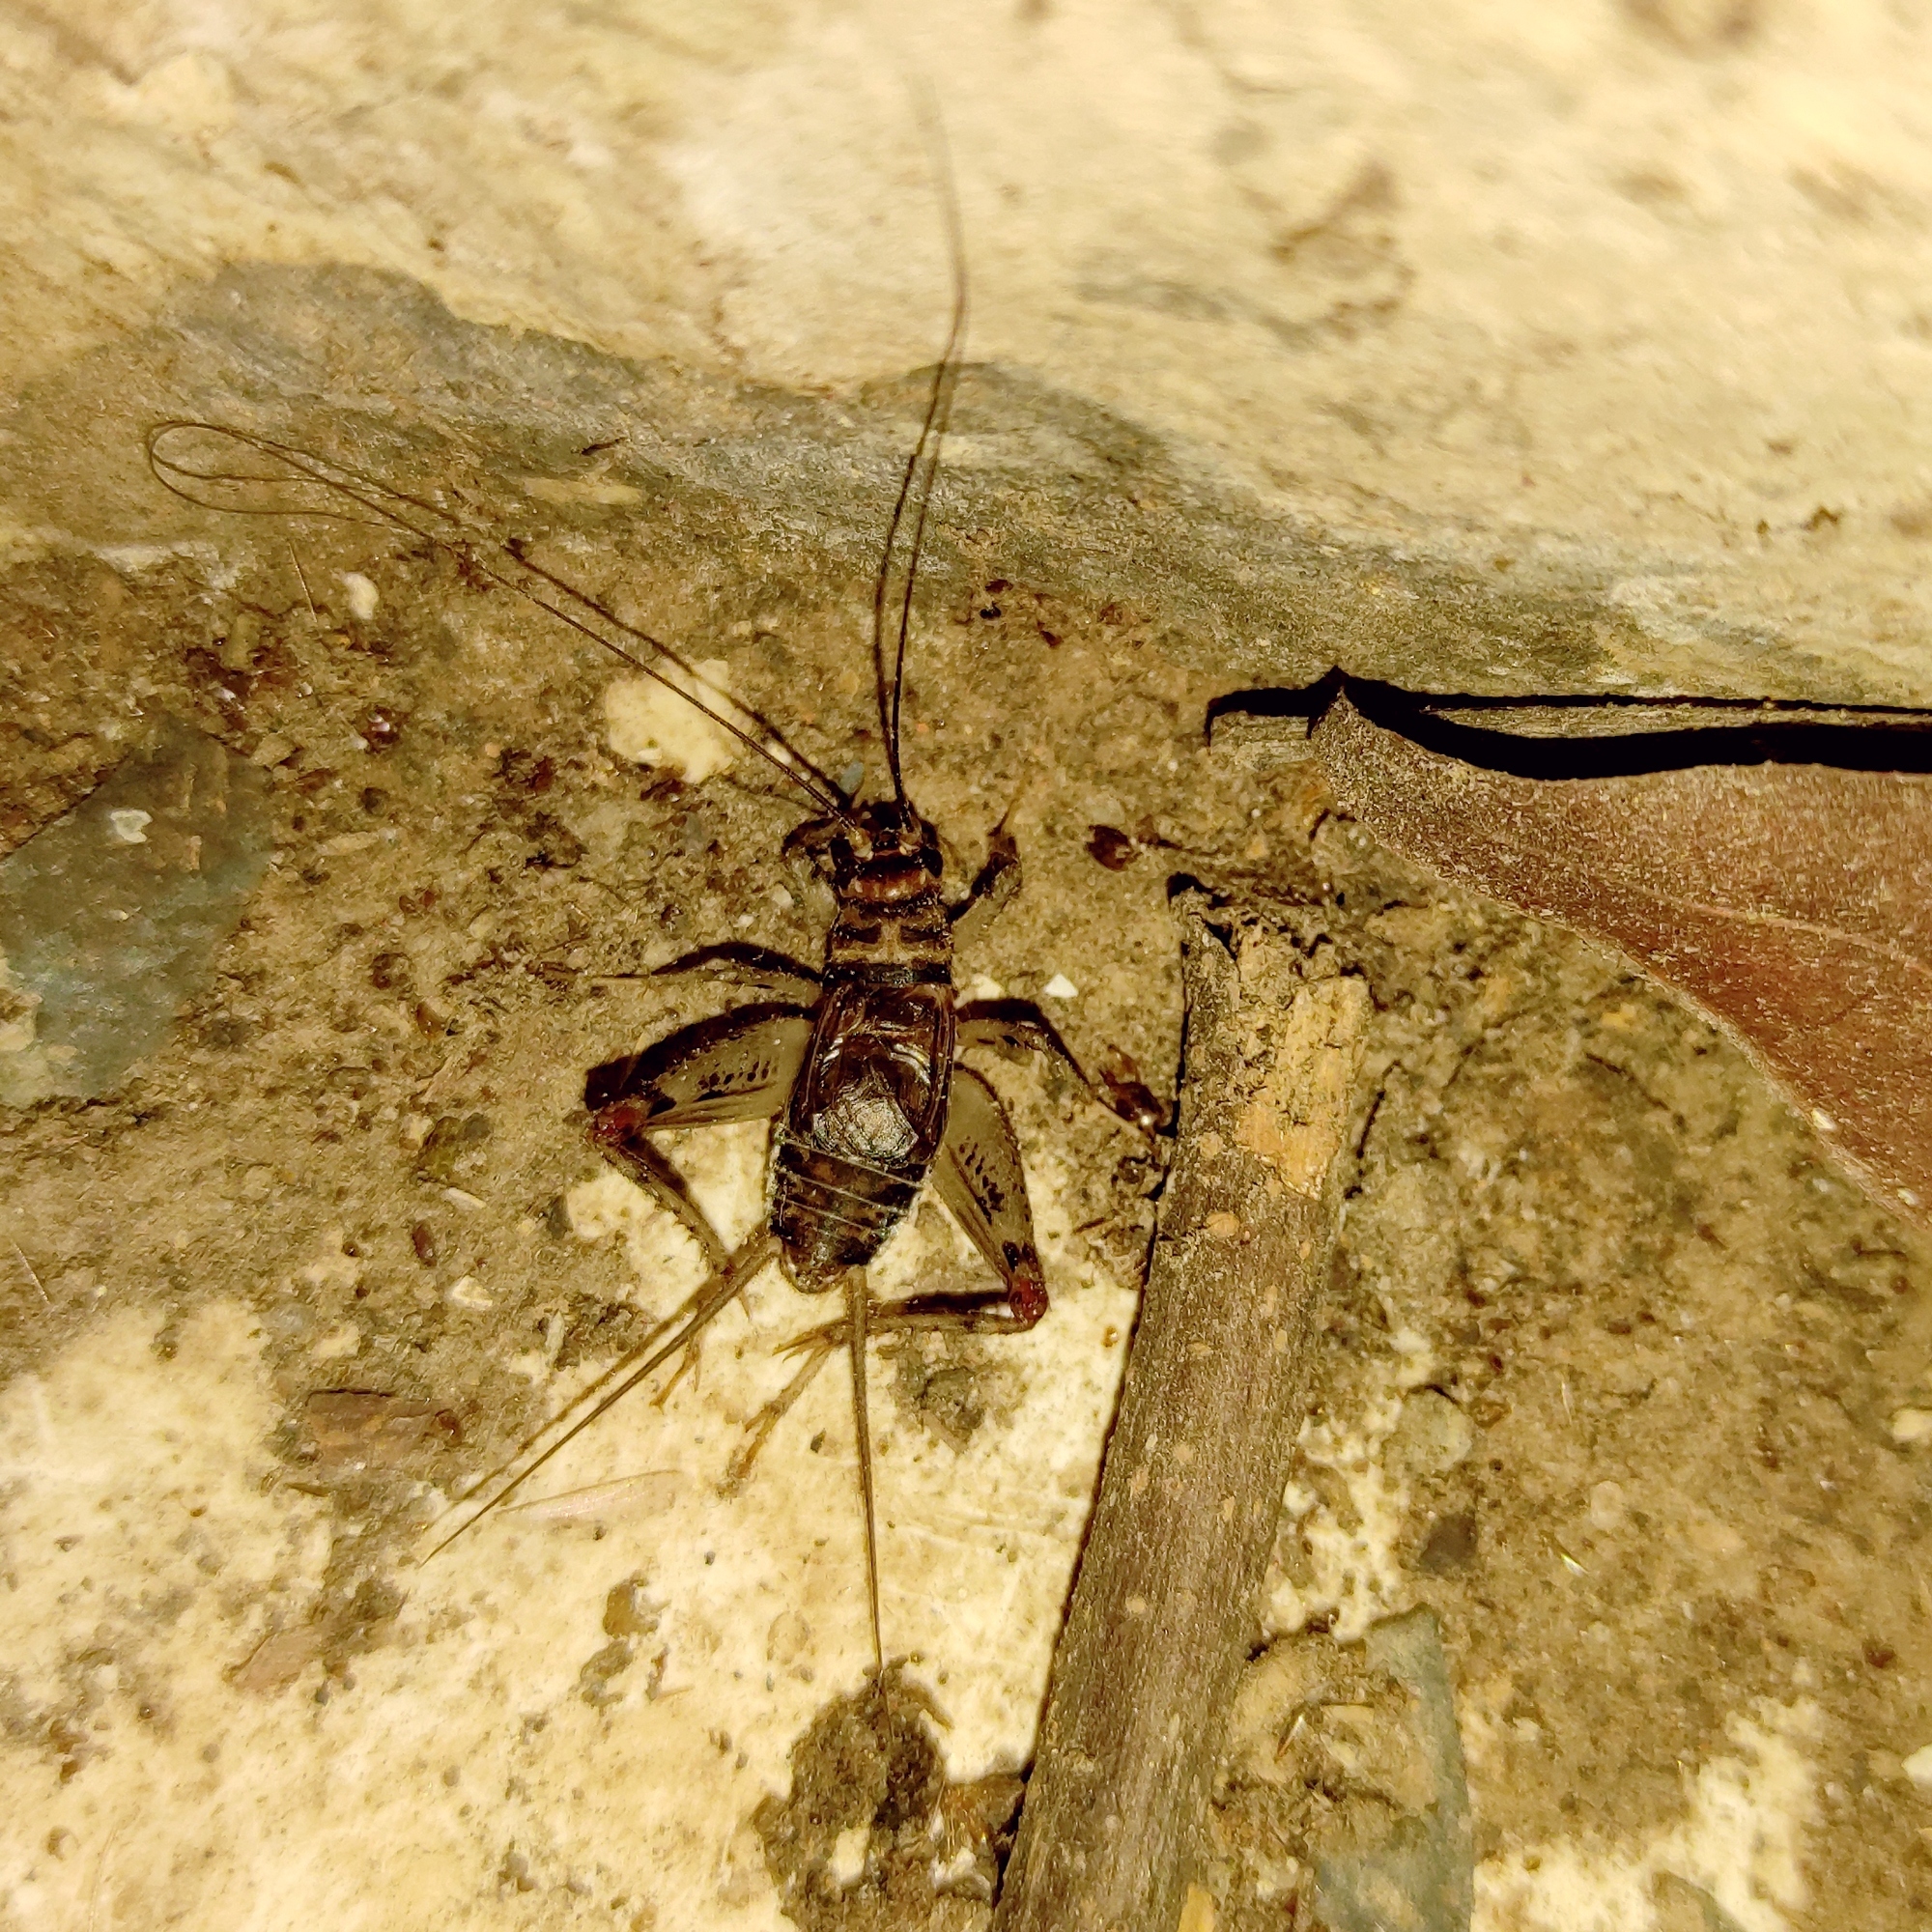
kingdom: Animalia
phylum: Arthropoda
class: Insecta
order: Orthoptera
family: Gryllidae
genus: Gryllodes
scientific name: Gryllodes sigillatus
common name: Tropical house cricket
